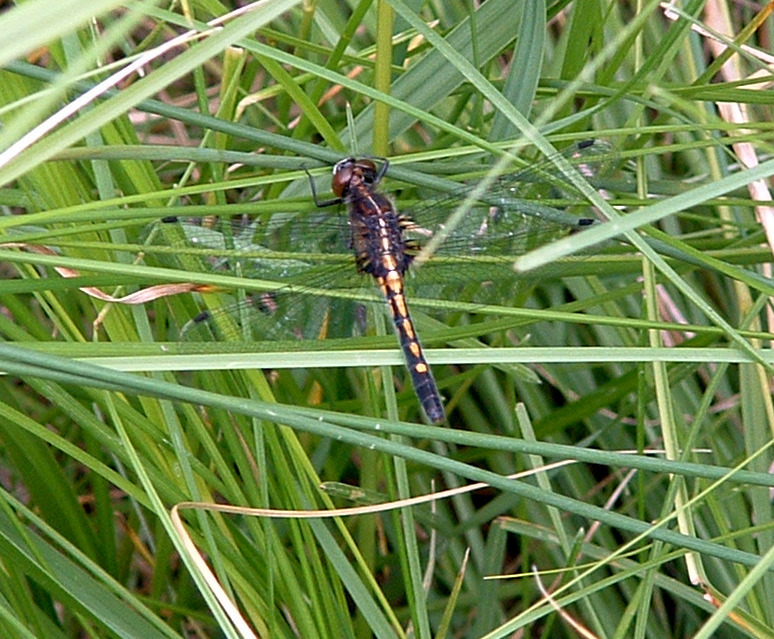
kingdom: Animalia
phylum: Arthropoda
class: Insecta
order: Odonata
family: Libellulidae
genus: Leucorrhinia
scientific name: Leucorrhinia intacta
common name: Dot-tailed whiteface
